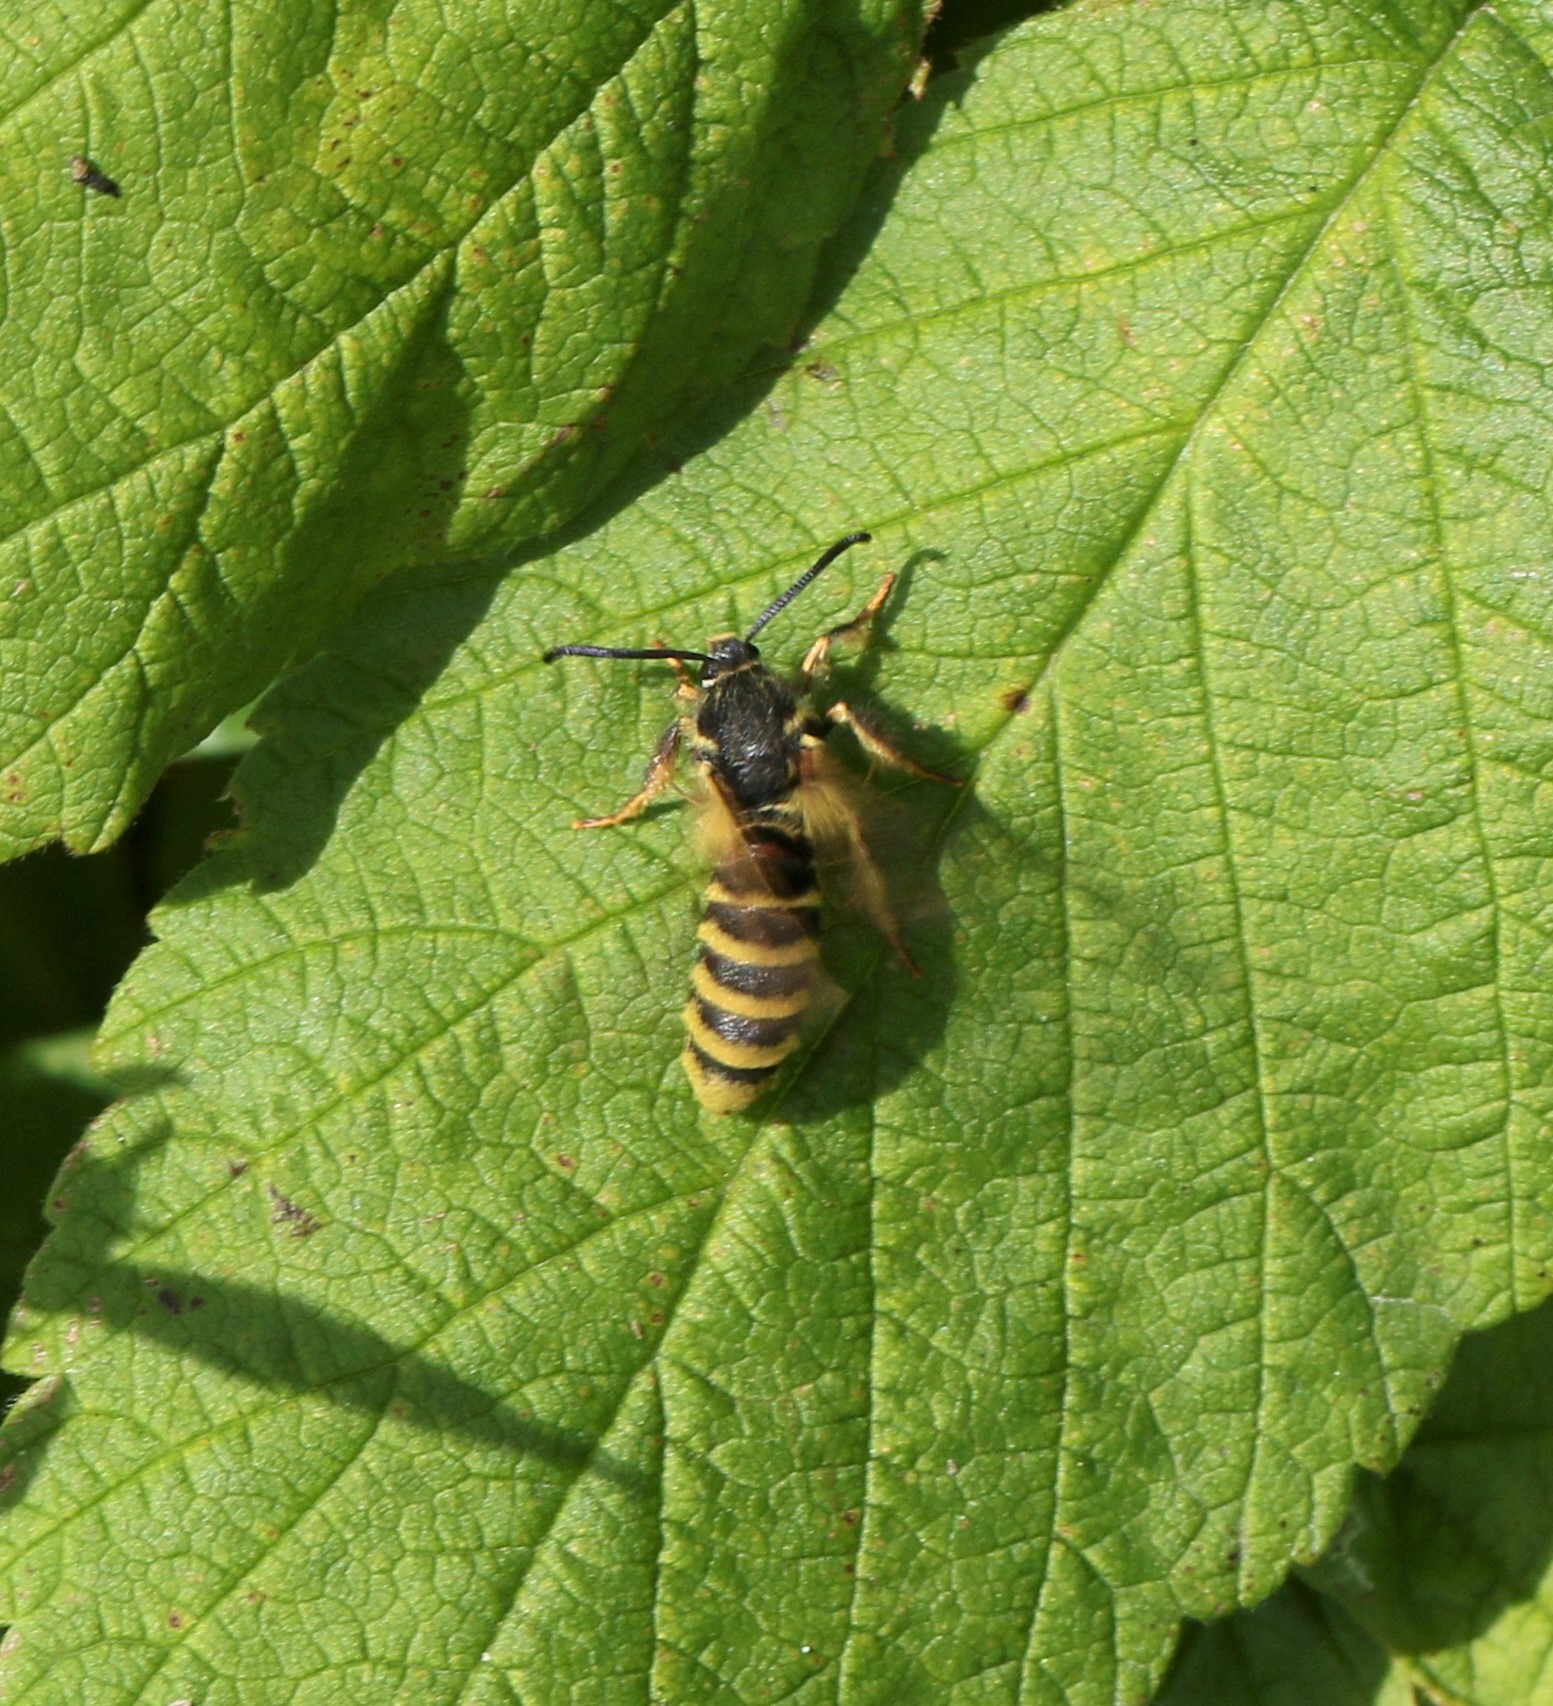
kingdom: Animalia
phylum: Arthropoda
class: Insecta
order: Lepidoptera
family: Sesiidae
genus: Pennisetia
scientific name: Pennisetia marginatum
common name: Raspberry crown borer
